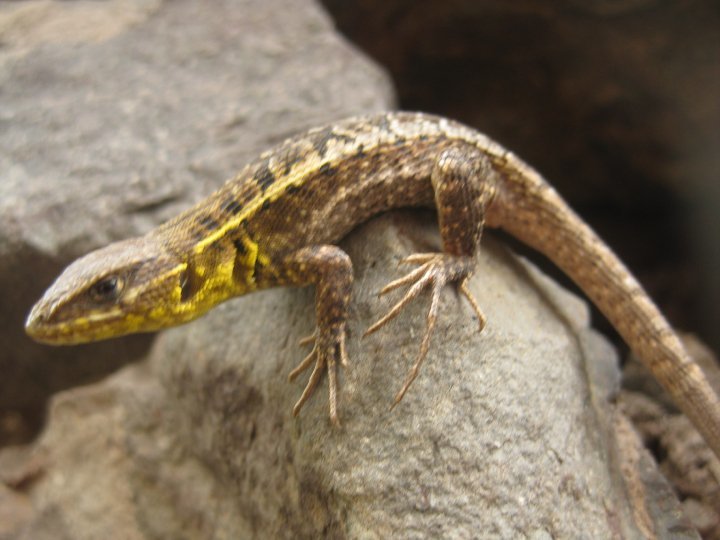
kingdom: Animalia
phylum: Chordata
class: Squamata
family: Tropiduridae
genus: Stenocercus
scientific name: Stenocercus ornatissimus
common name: Lesser ornate whorltail iguana
